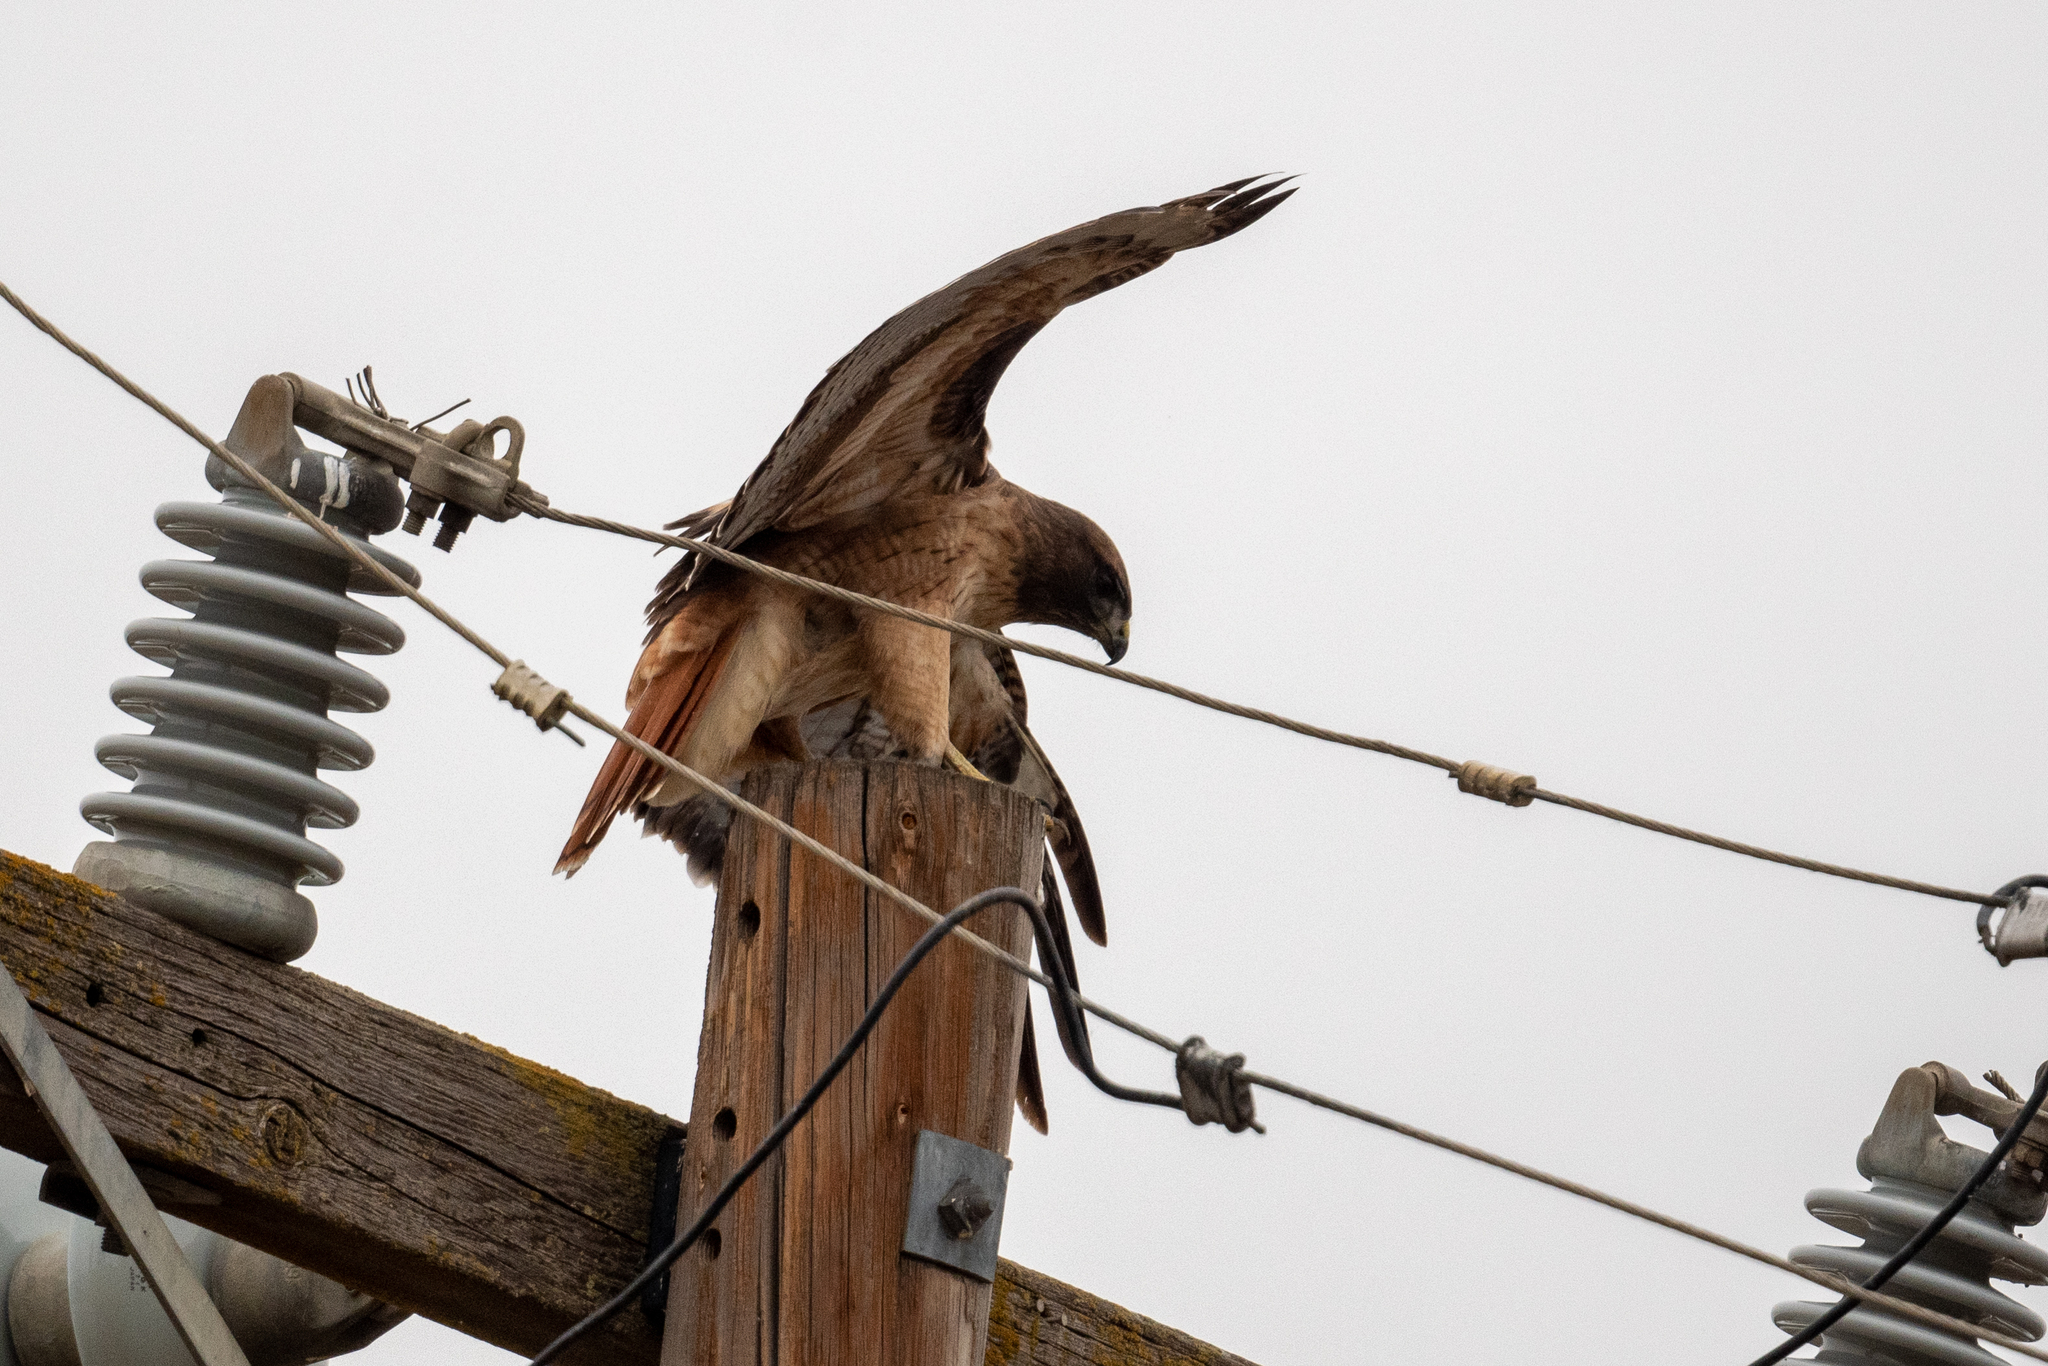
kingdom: Animalia
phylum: Chordata
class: Aves
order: Accipitriformes
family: Accipitridae
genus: Buteo
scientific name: Buteo jamaicensis
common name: Red-tailed hawk
